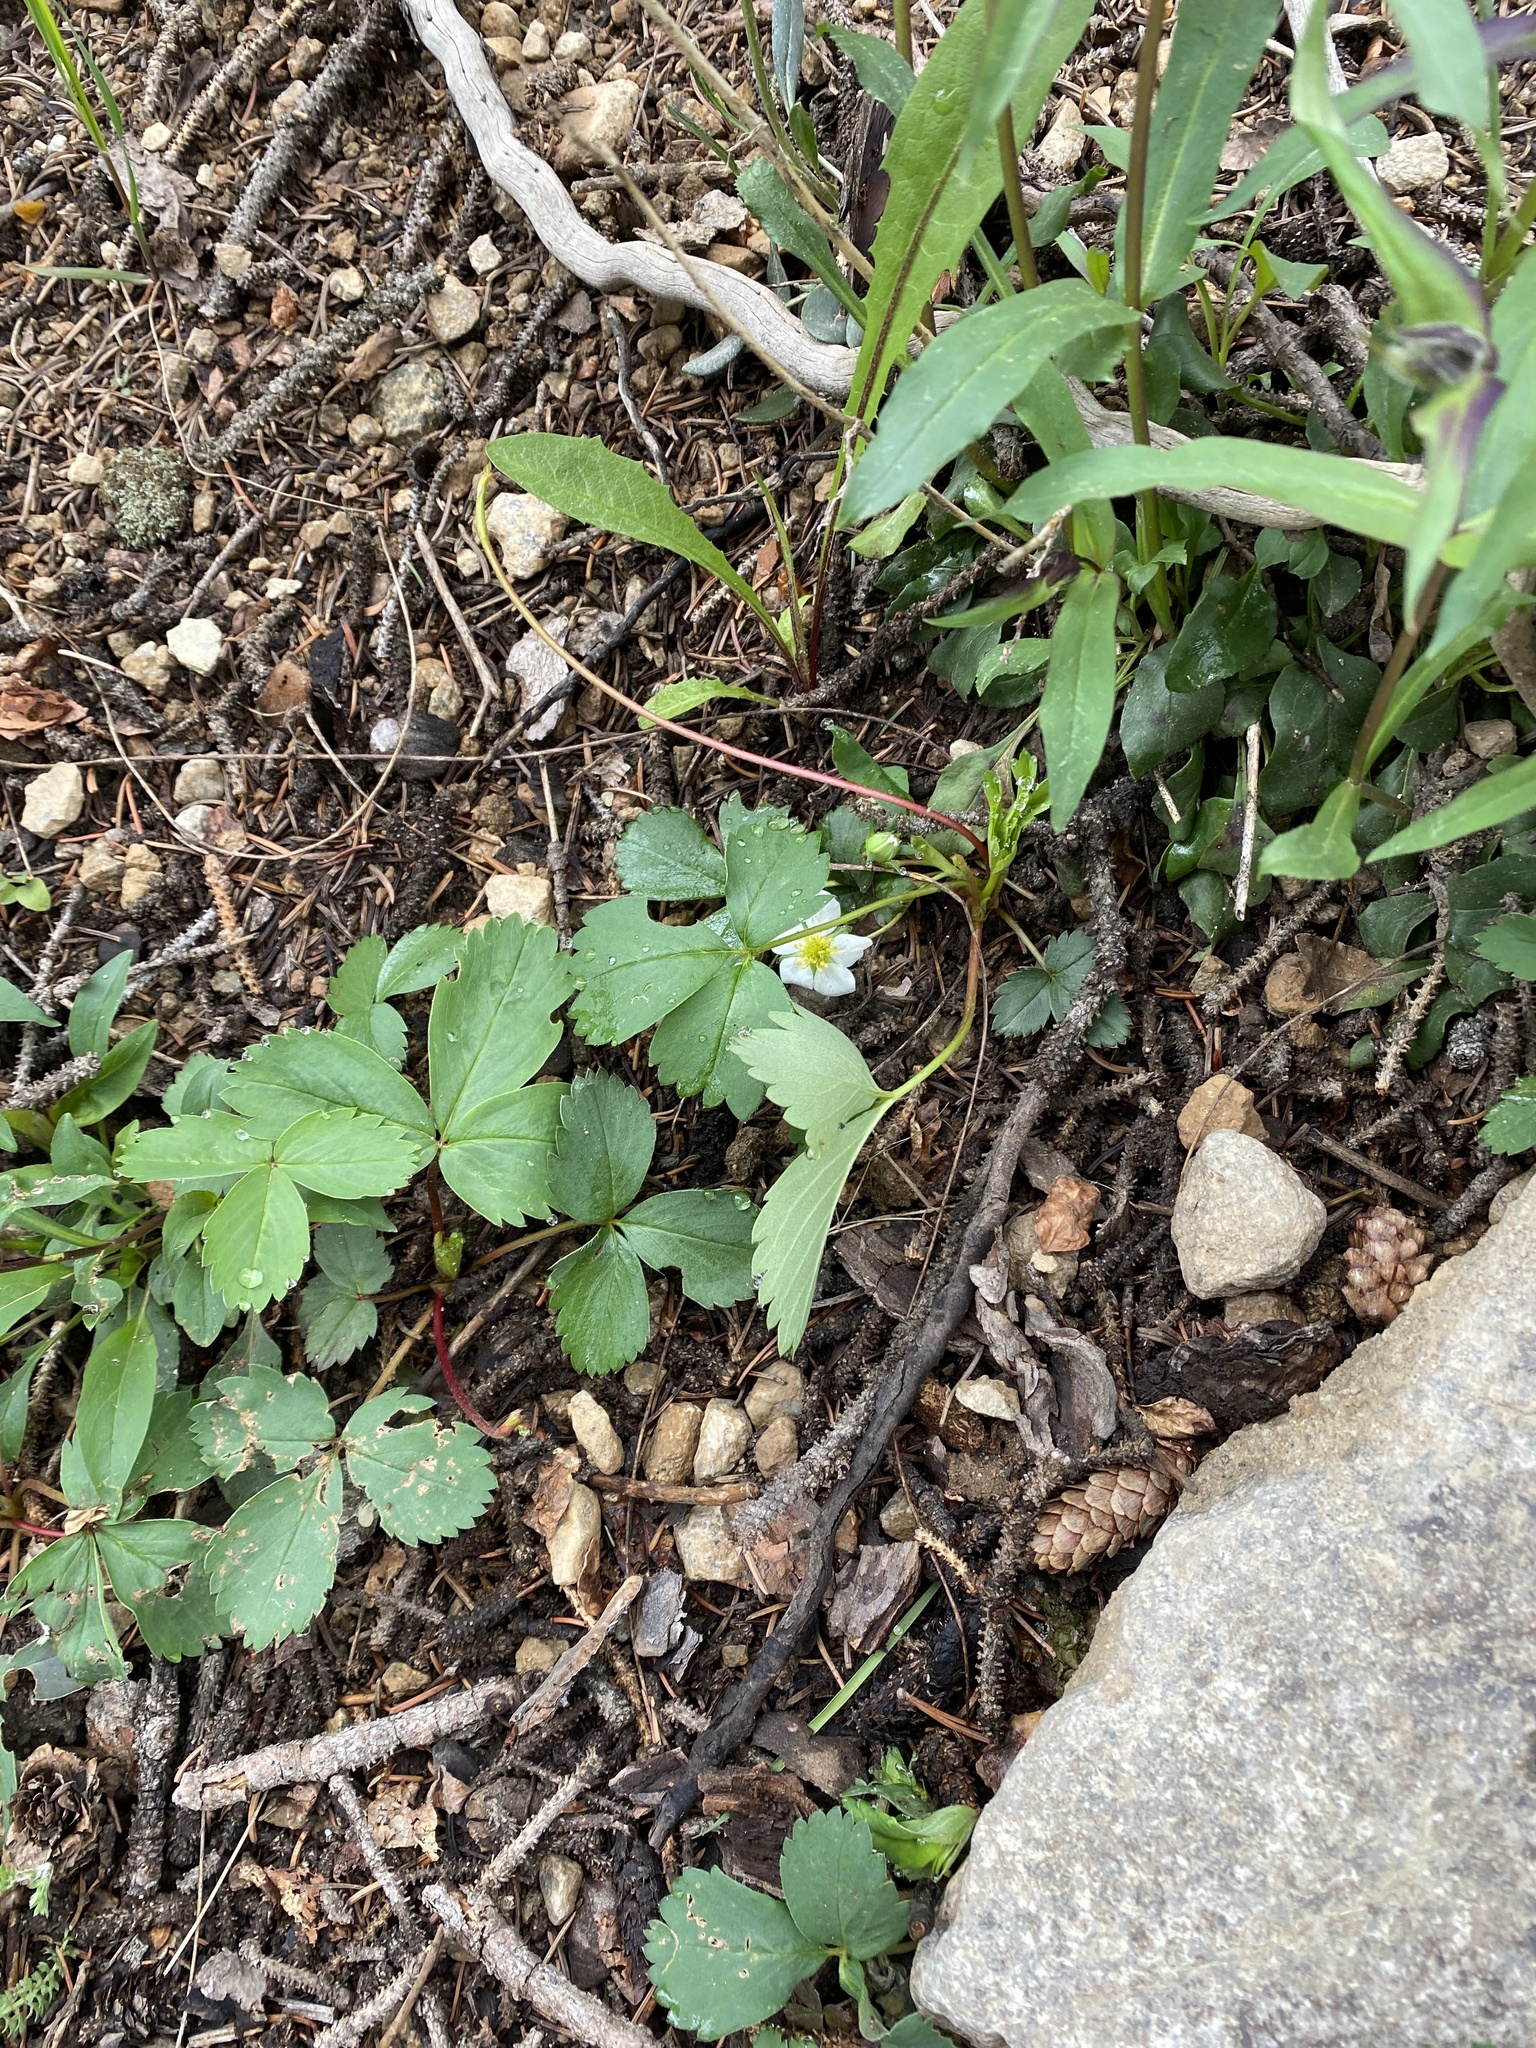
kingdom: Plantae
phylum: Tracheophyta
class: Magnoliopsida
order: Rosales
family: Rosaceae
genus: Fragaria
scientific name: Fragaria virginiana
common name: Thickleaved wild strawberry
